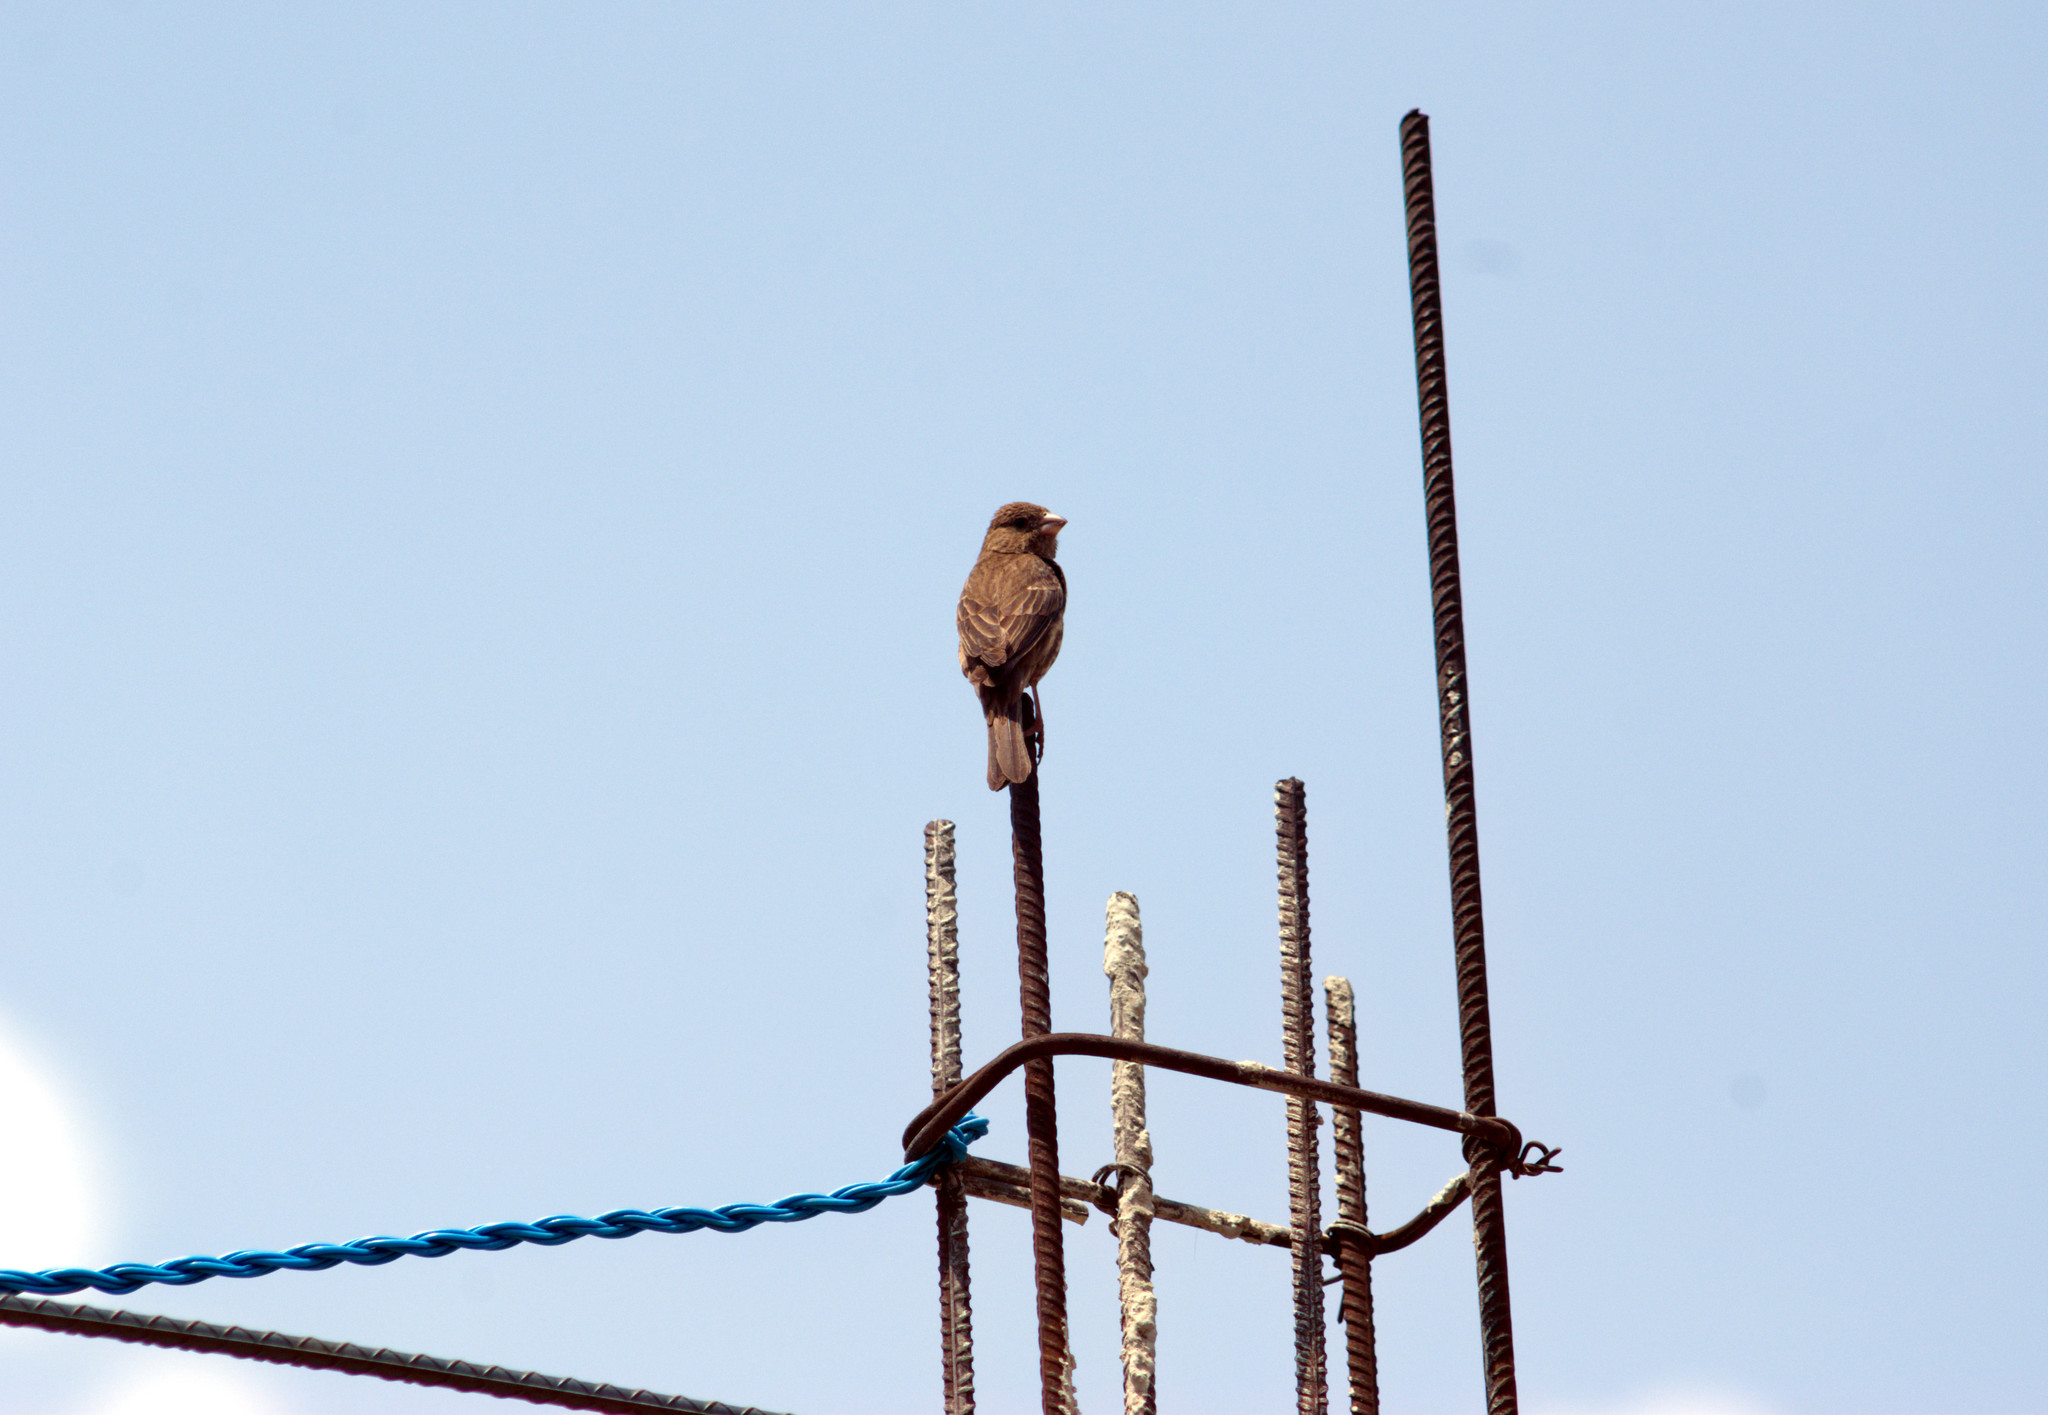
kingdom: Animalia
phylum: Chordata
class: Aves
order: Passeriformes
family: Fringillidae
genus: Haemorhous
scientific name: Haemorhous mexicanus
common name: House finch
